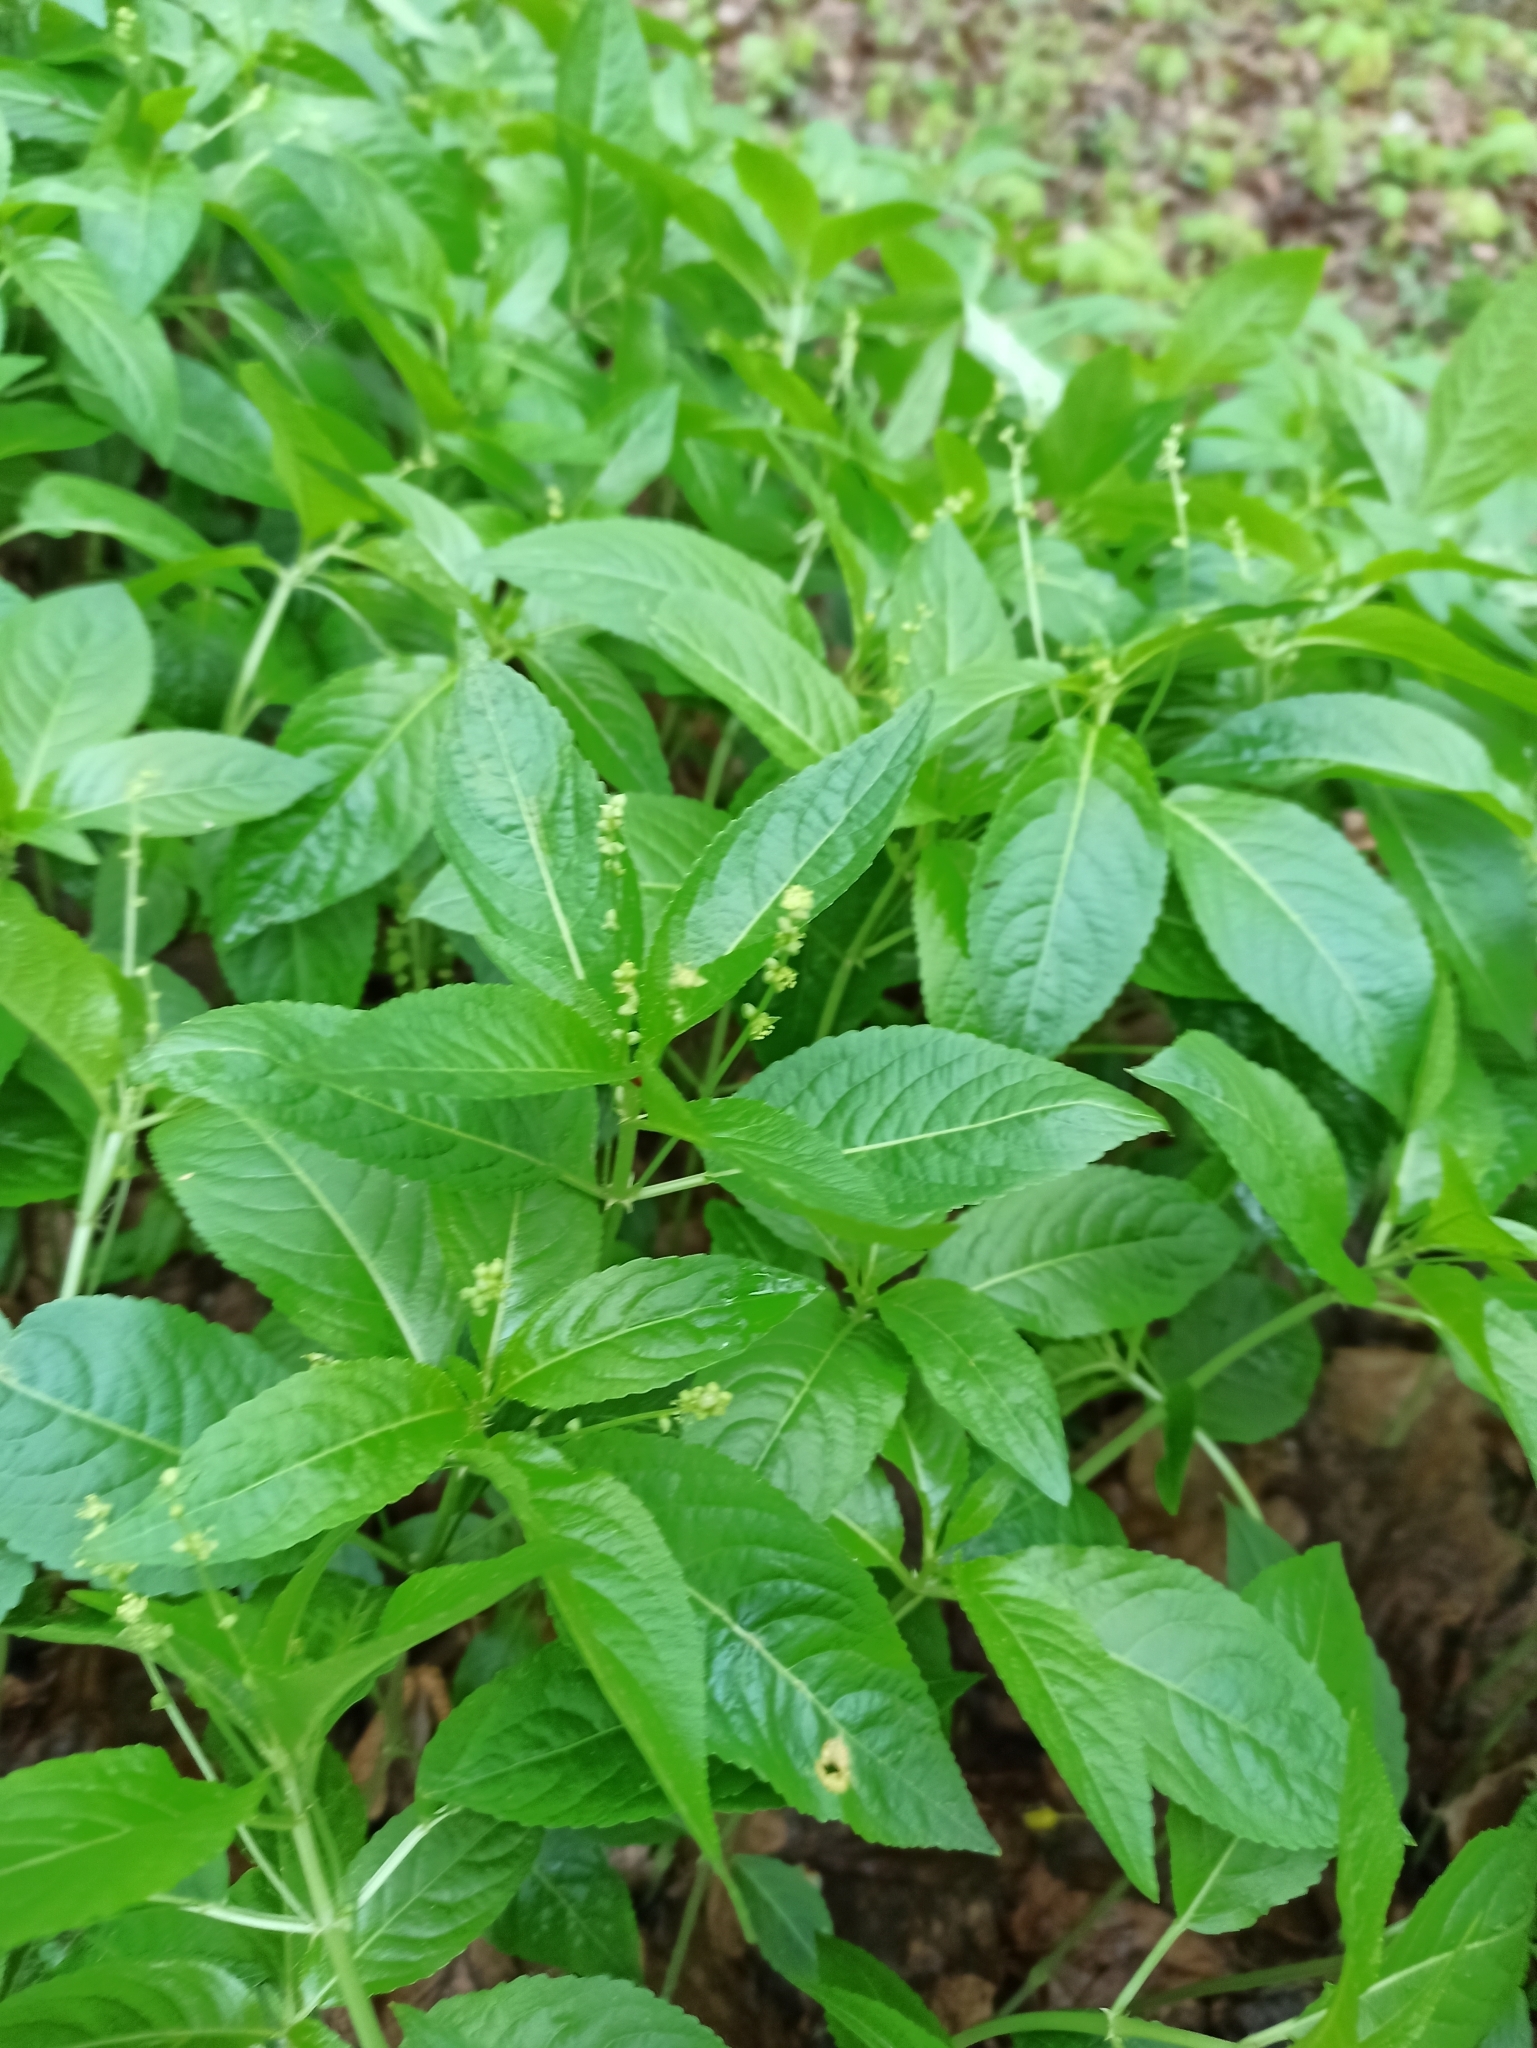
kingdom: Plantae
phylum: Tracheophyta
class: Magnoliopsida
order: Malpighiales
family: Euphorbiaceae
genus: Mercurialis
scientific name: Mercurialis perennis
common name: Dog mercury
